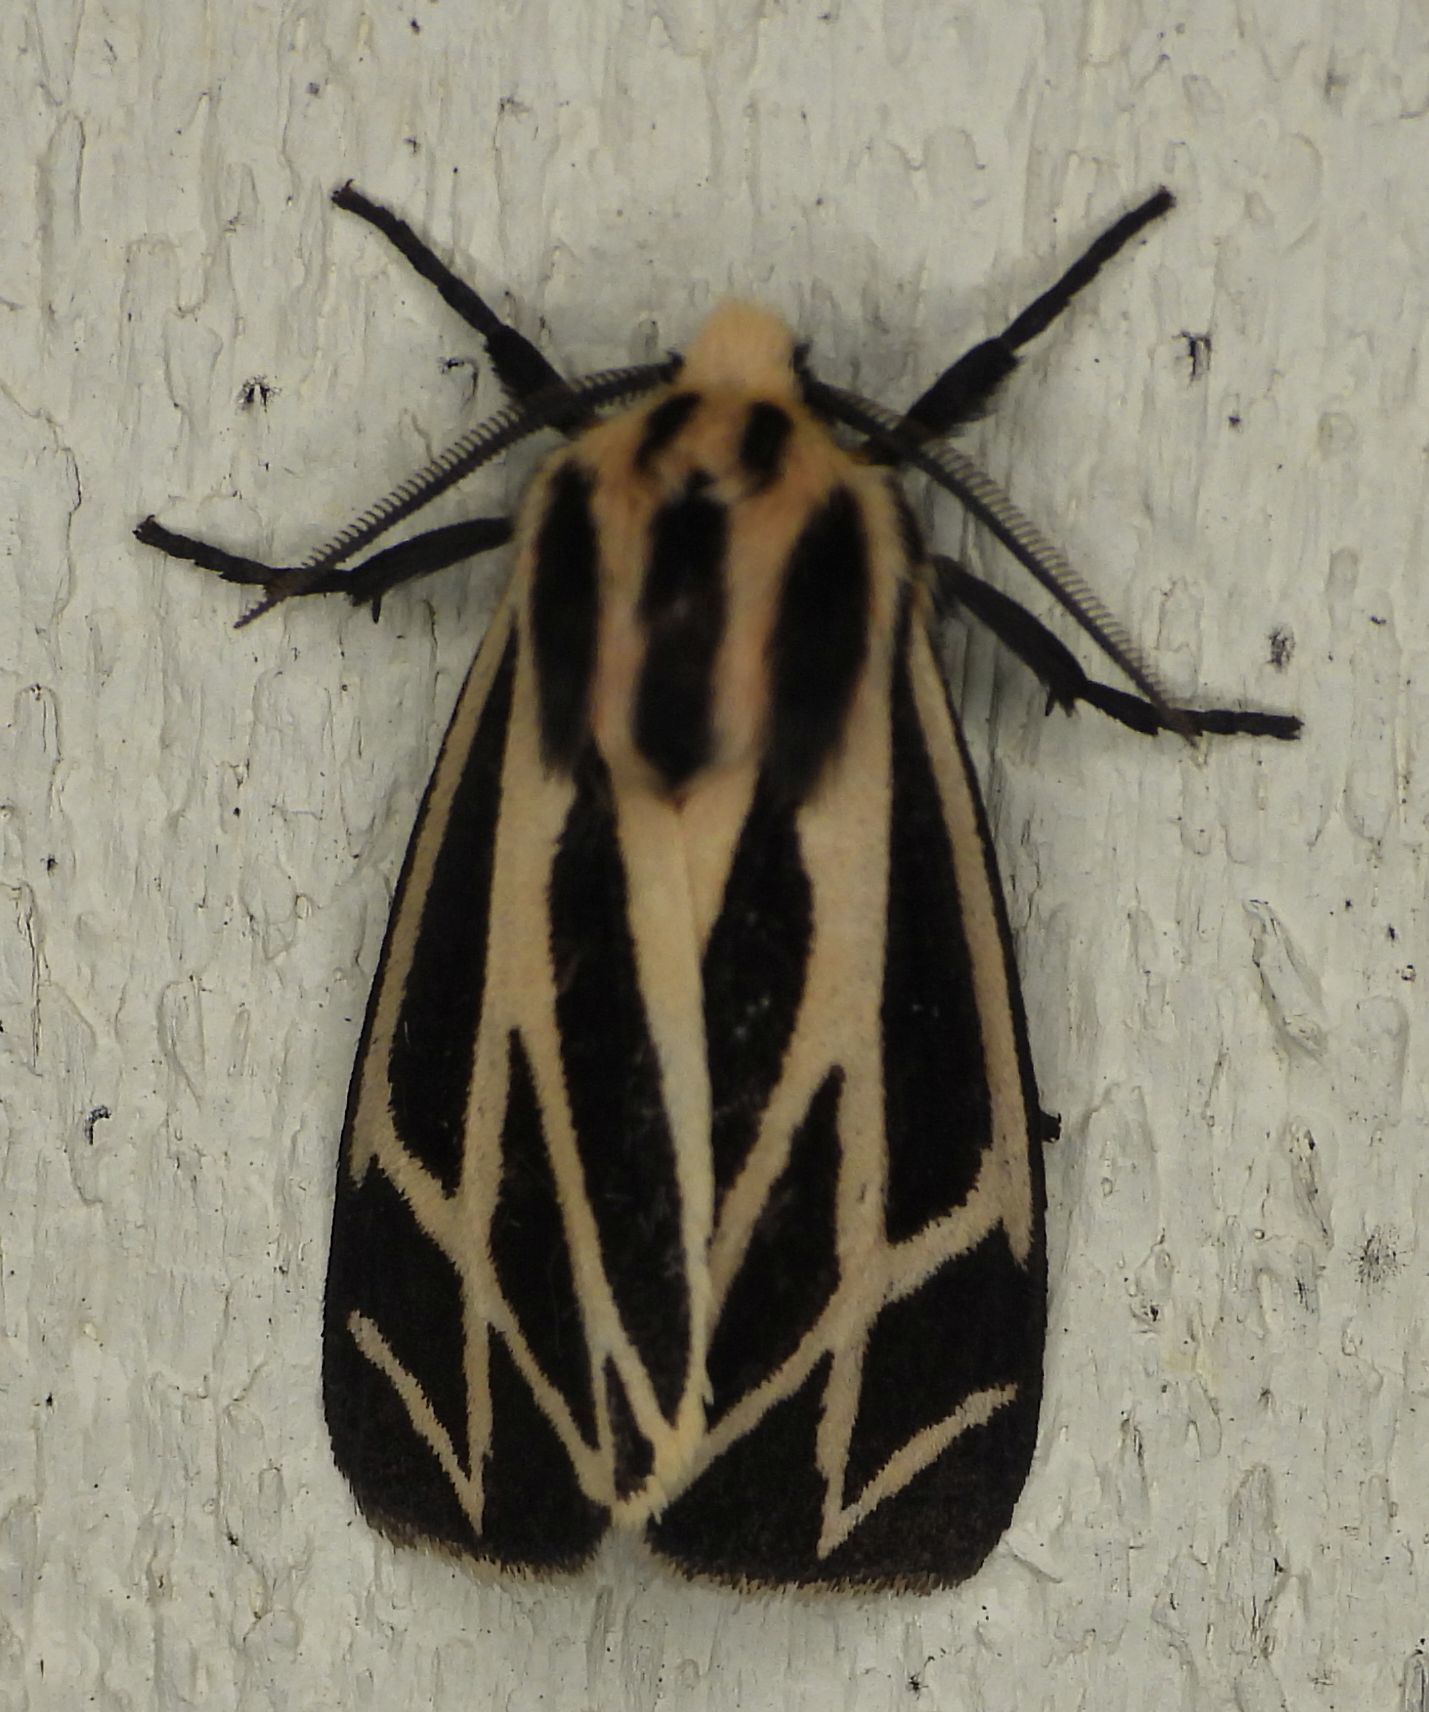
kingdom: Animalia
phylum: Arthropoda
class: Insecta
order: Lepidoptera
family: Erebidae
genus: Apantesis
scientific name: Apantesis phalerata
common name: Harnessed tiger moth
